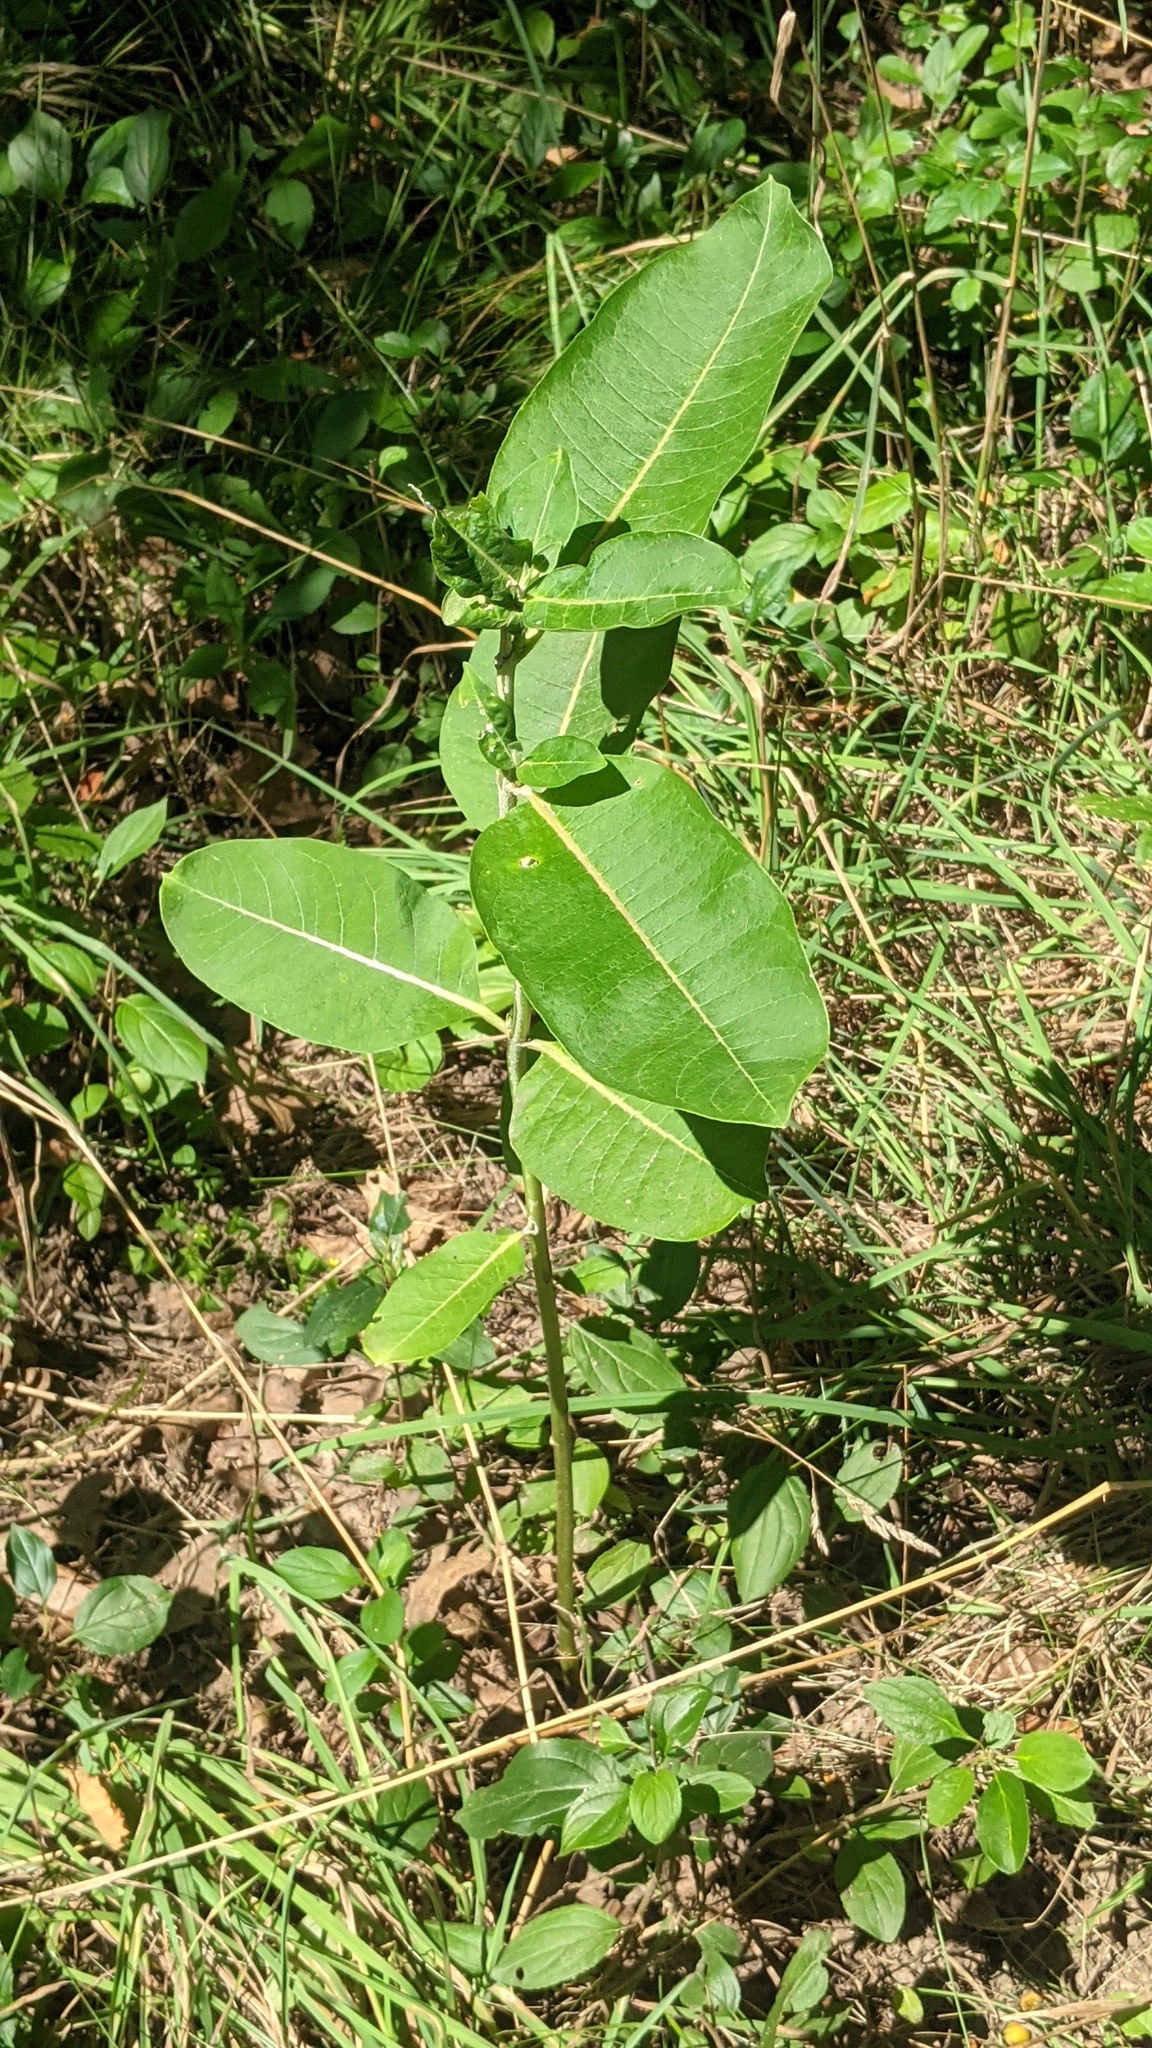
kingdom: Plantae
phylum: Tracheophyta
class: Magnoliopsida
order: Gentianales
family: Apocynaceae
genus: Asclepias
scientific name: Asclepias syriaca
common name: Common milkweed
